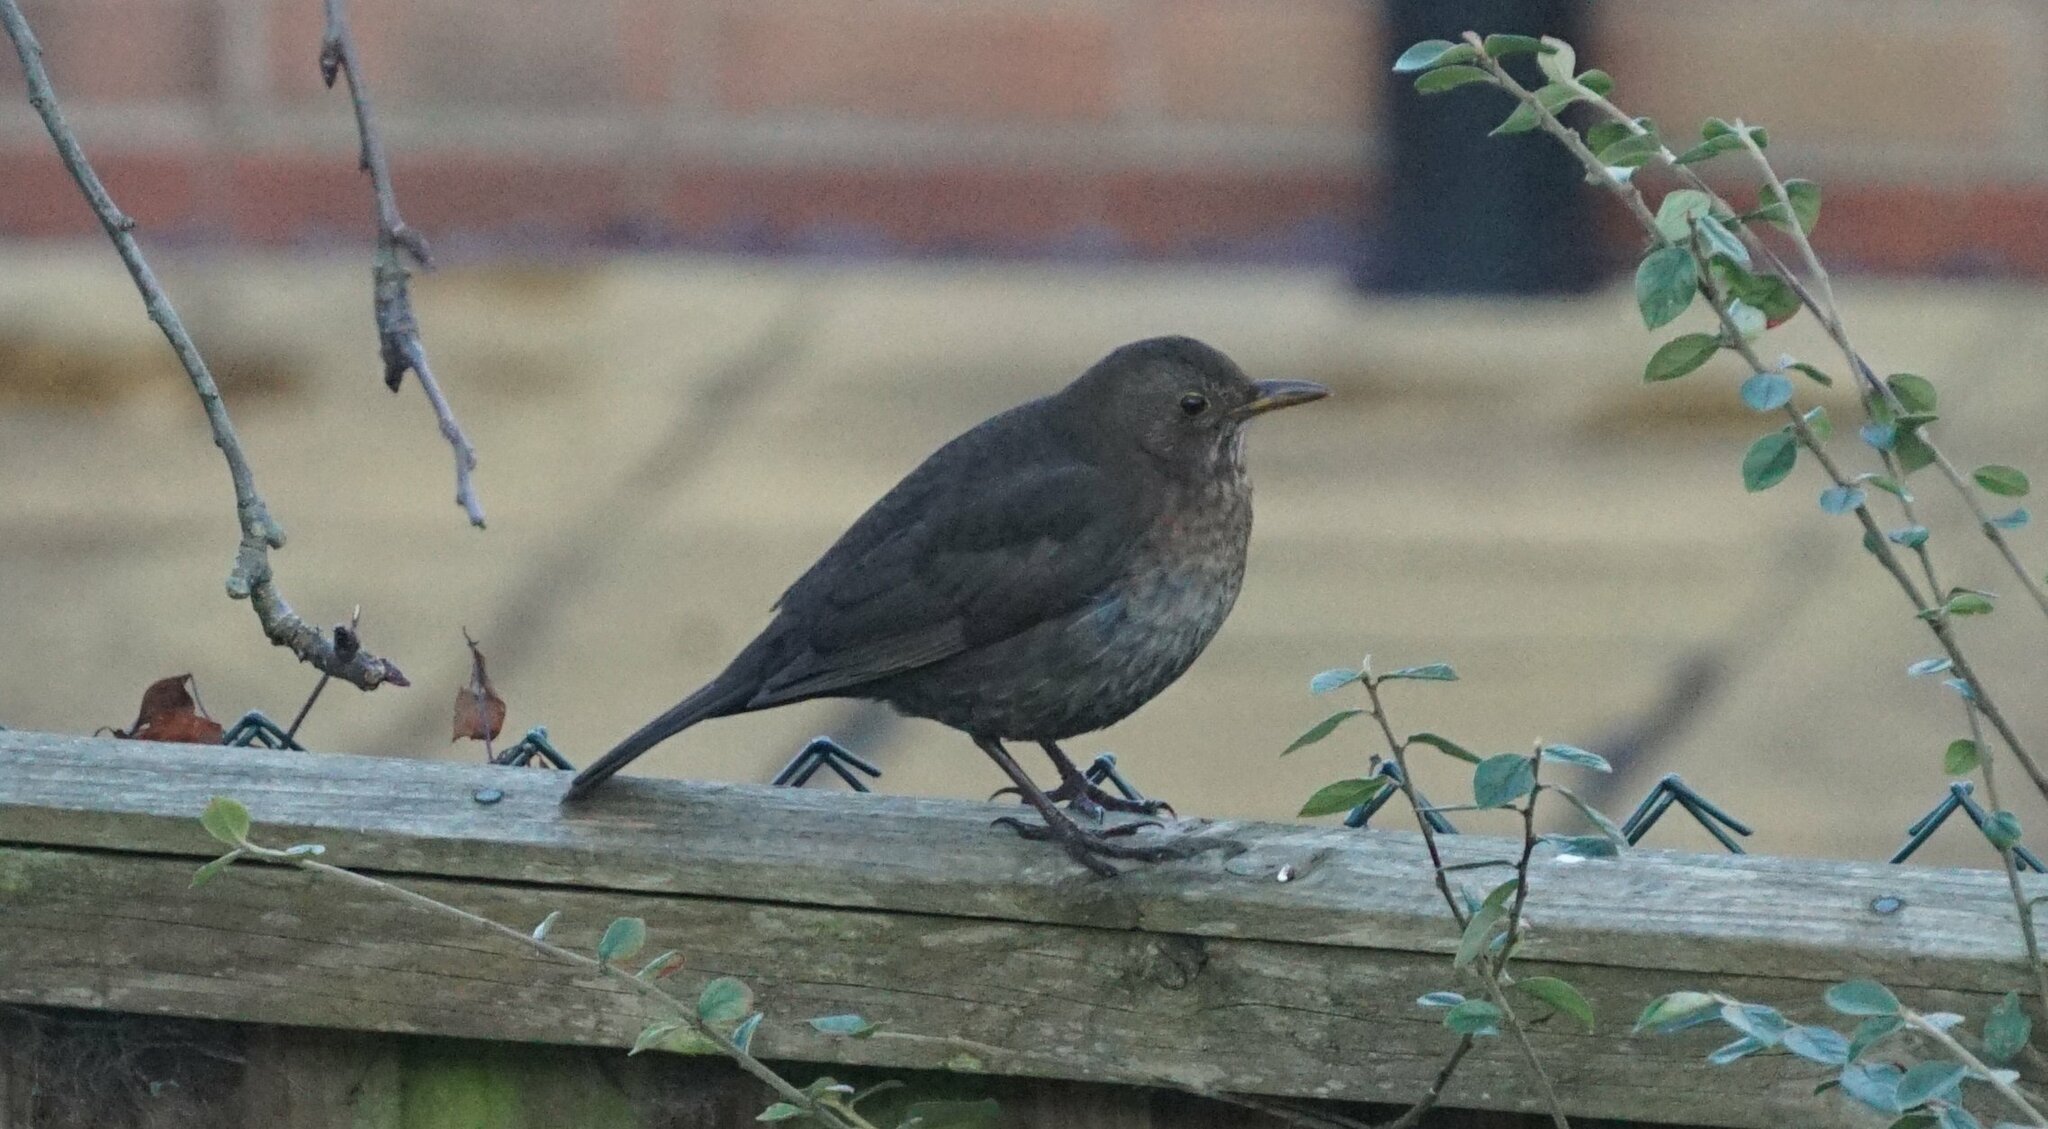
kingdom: Animalia
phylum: Chordata
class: Aves
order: Passeriformes
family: Turdidae
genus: Turdus
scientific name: Turdus merula
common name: Common blackbird
